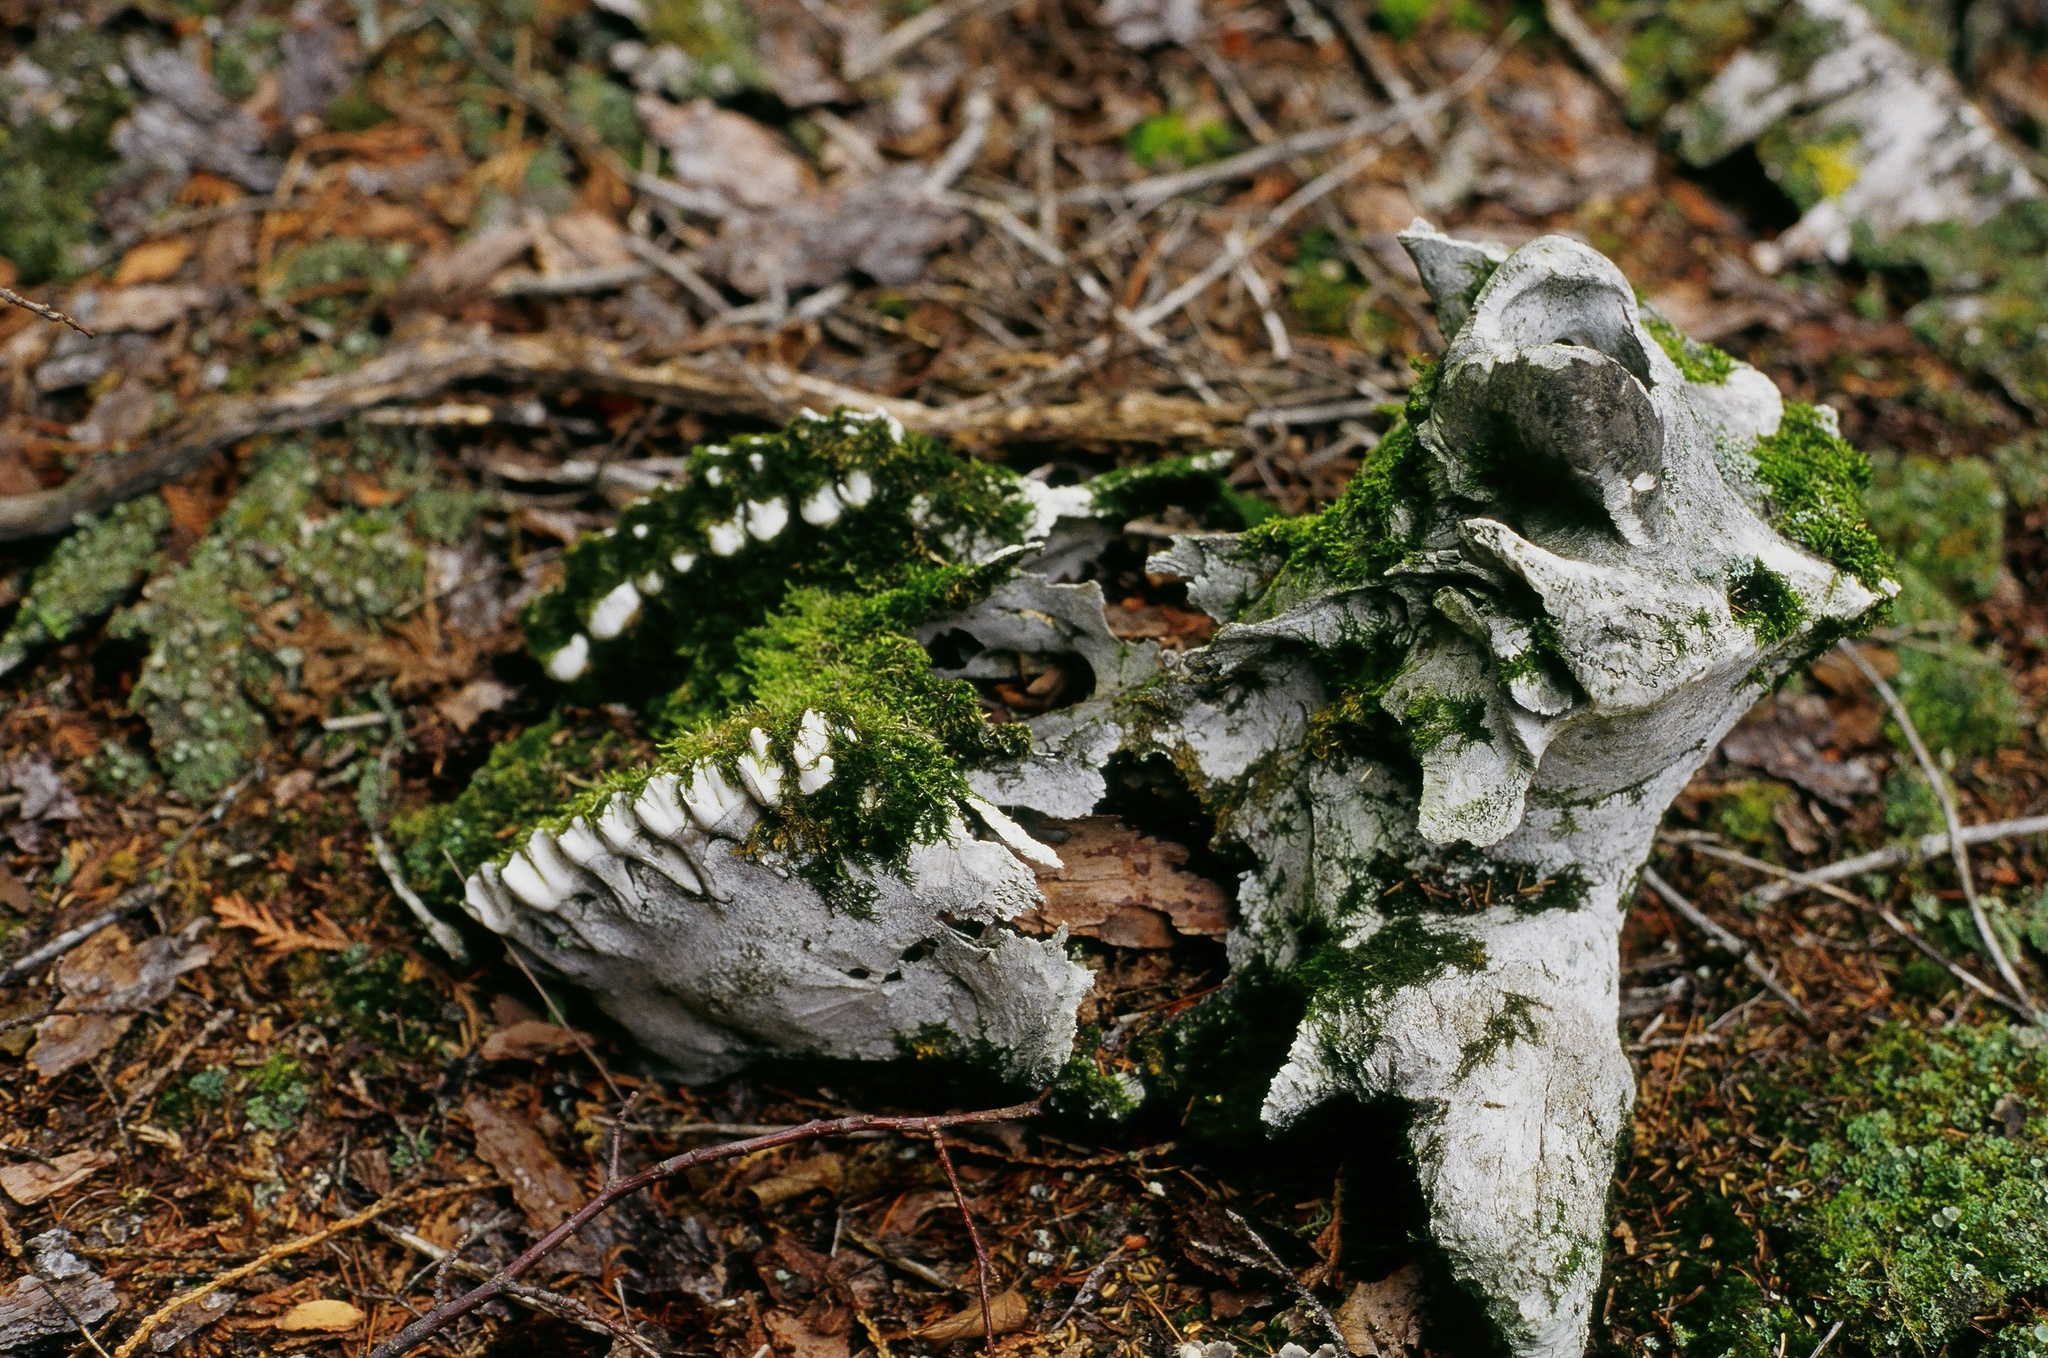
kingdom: Animalia
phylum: Chordata
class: Mammalia
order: Artiodactyla
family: Cervidae
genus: Alces
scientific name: Alces alces
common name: Moose
